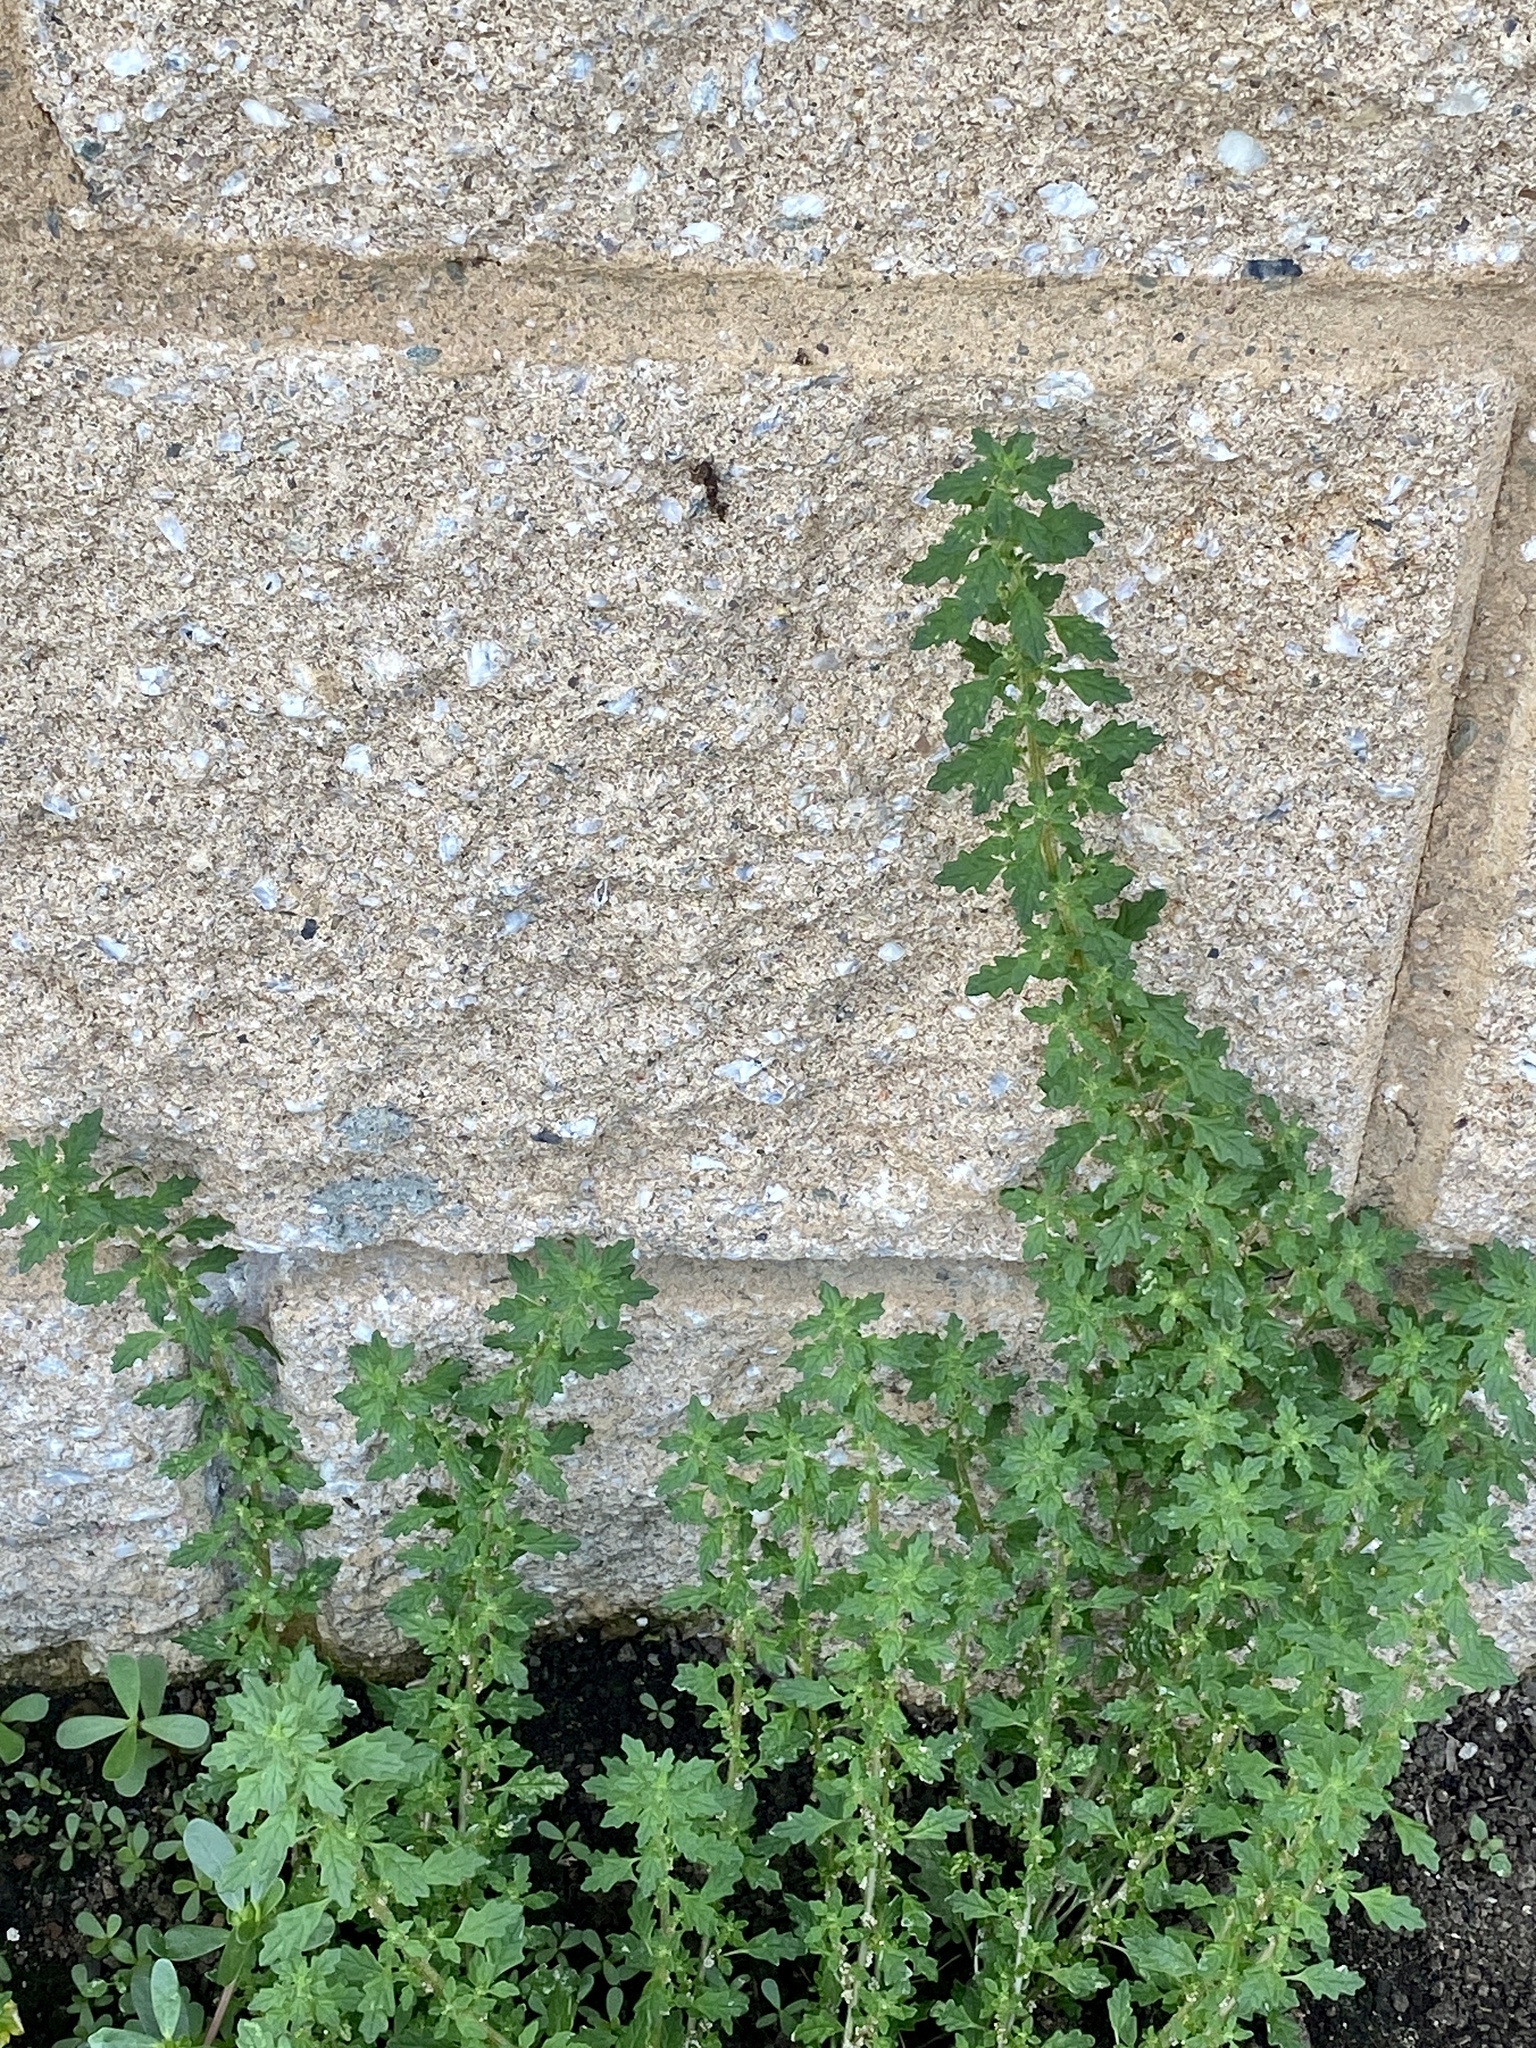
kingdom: Plantae
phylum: Tracheophyta
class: Magnoliopsida
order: Caryophyllales
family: Amaranthaceae
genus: Dysphania
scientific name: Dysphania pumilio
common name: Clammy goosefoot
